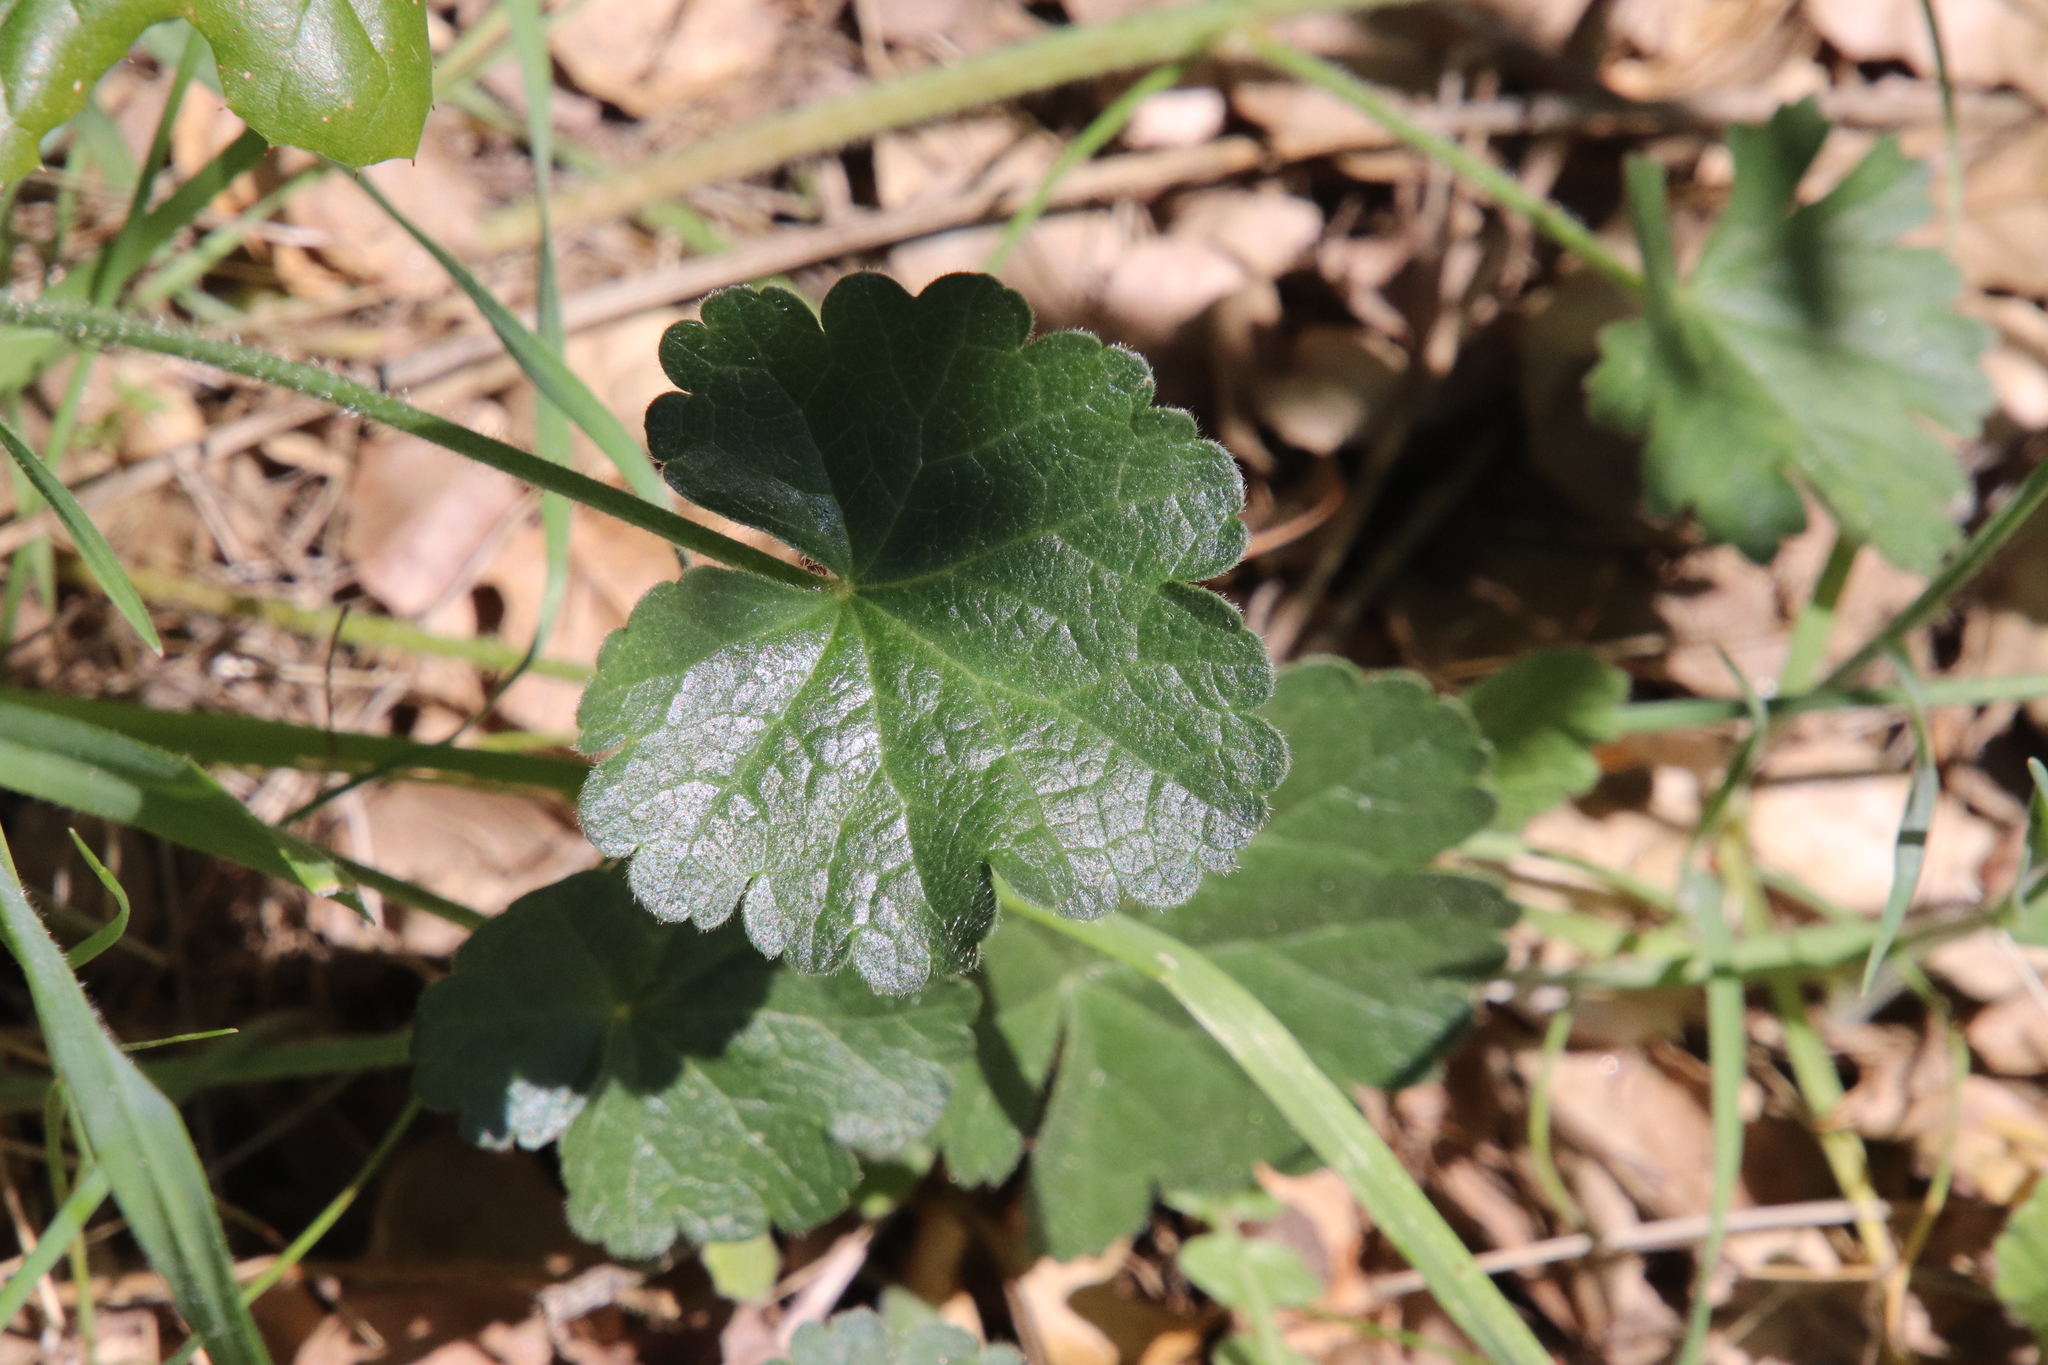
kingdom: Plantae
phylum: Tracheophyta
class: Magnoliopsida
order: Malvales
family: Malvaceae
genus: Sidalcea
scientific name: Sidalcea sparsifolia
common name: Southern checkerbloom
